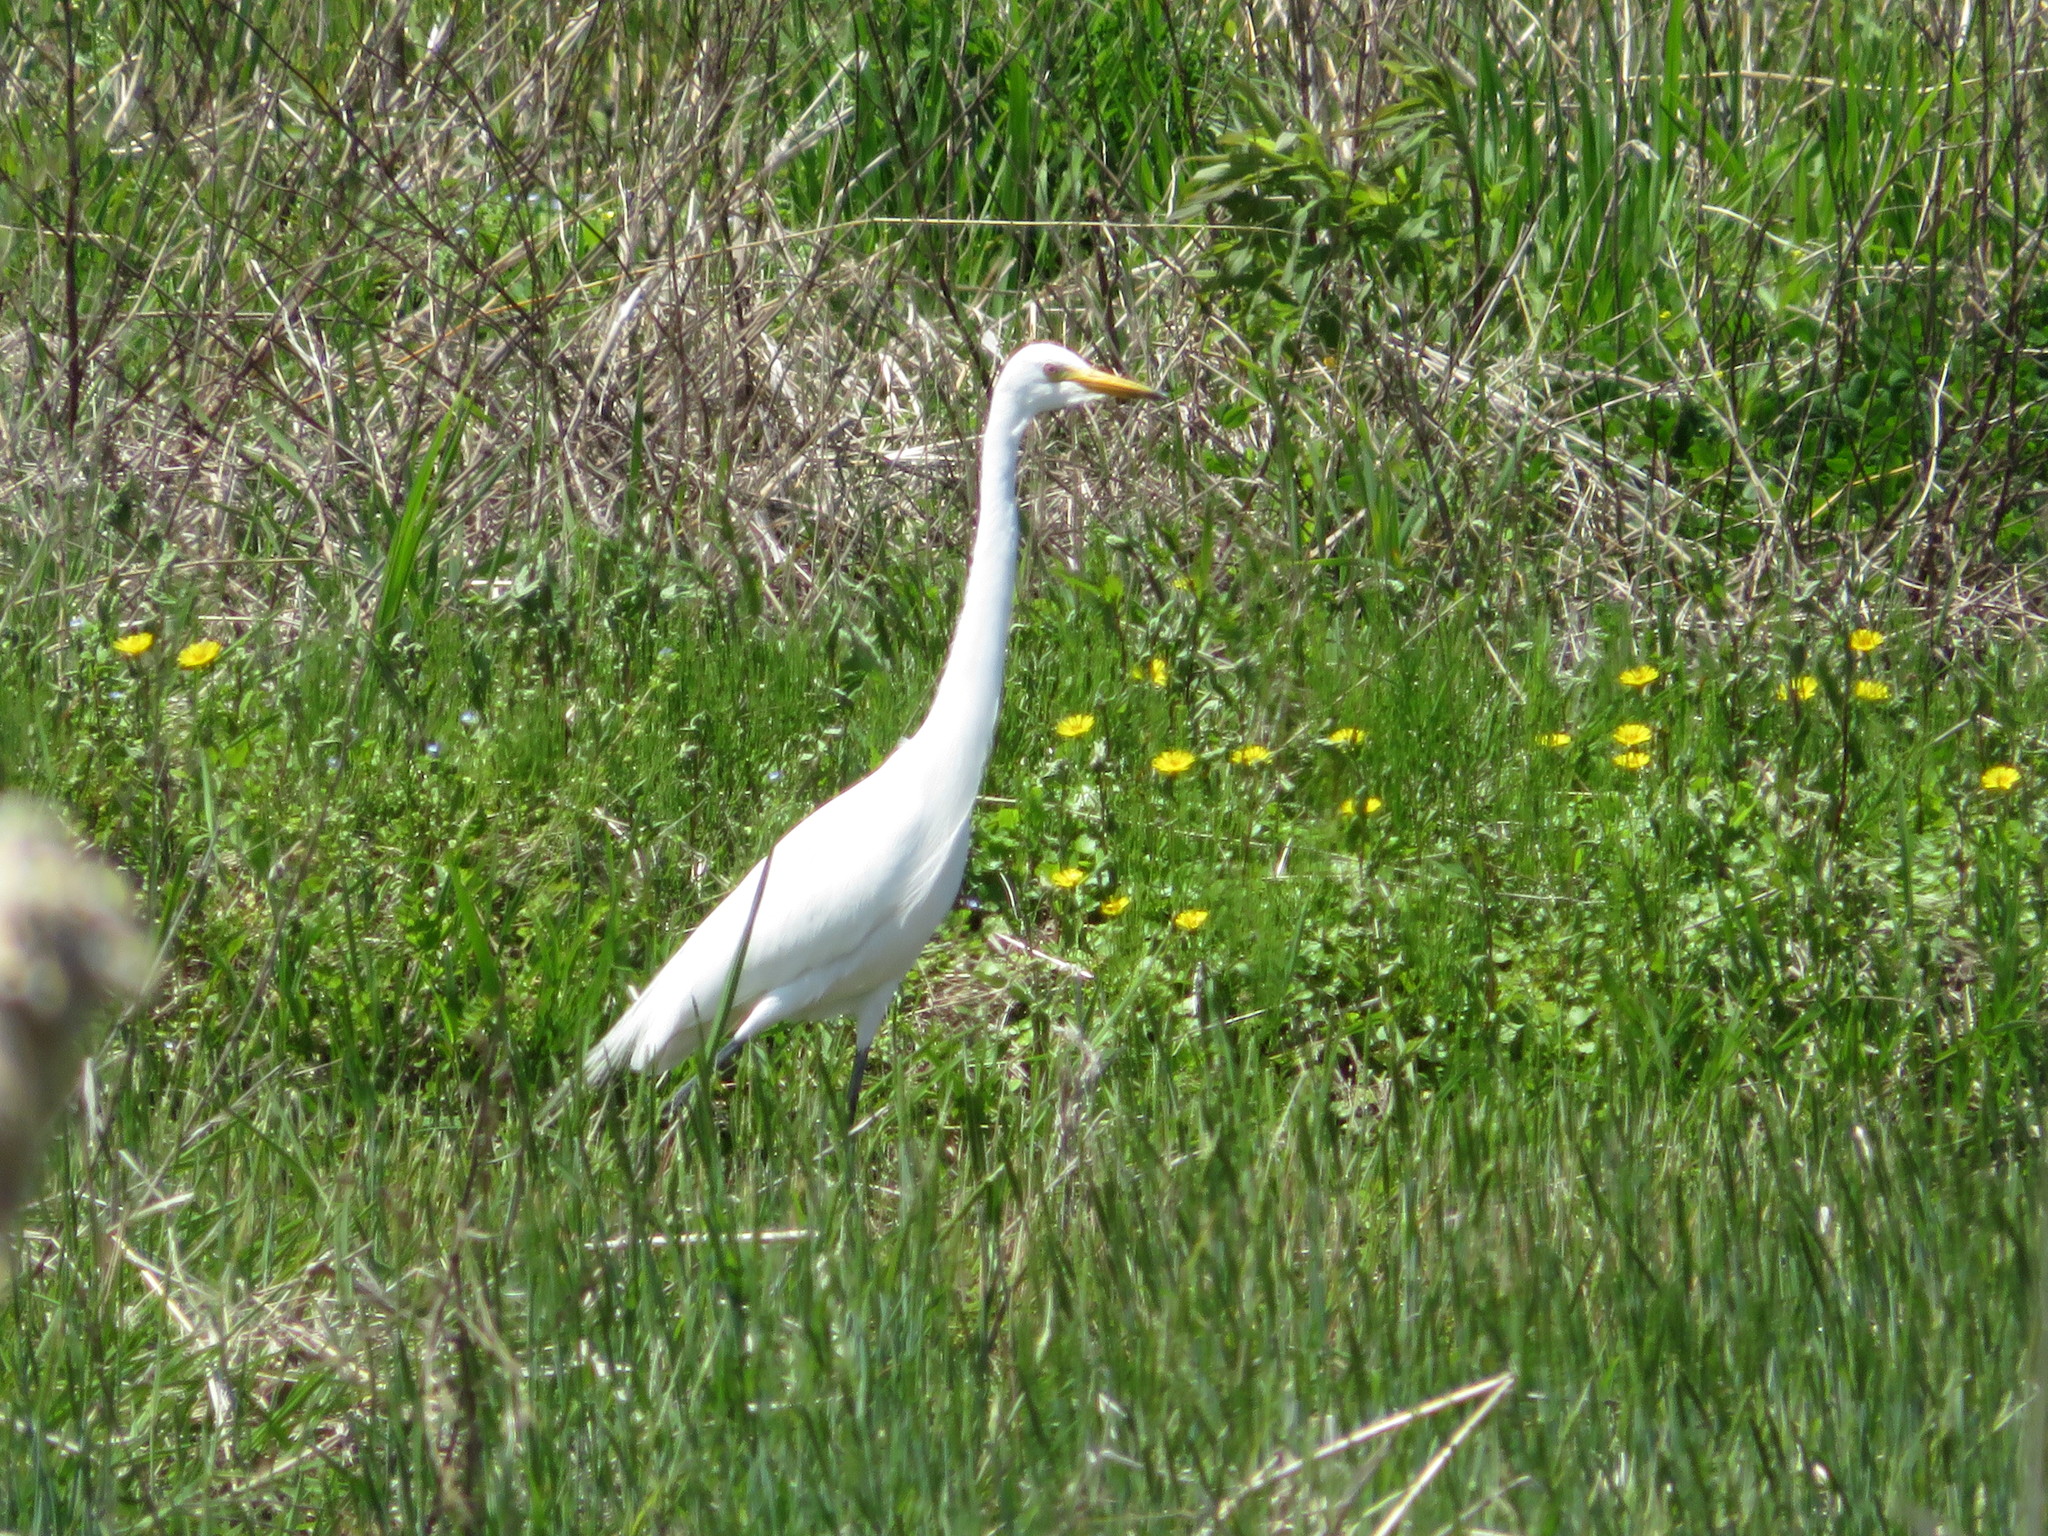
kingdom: Animalia
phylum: Chordata
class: Aves
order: Pelecaniformes
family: Ardeidae
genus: Egretta
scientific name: Egretta intermedia
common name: Intermediate egret
